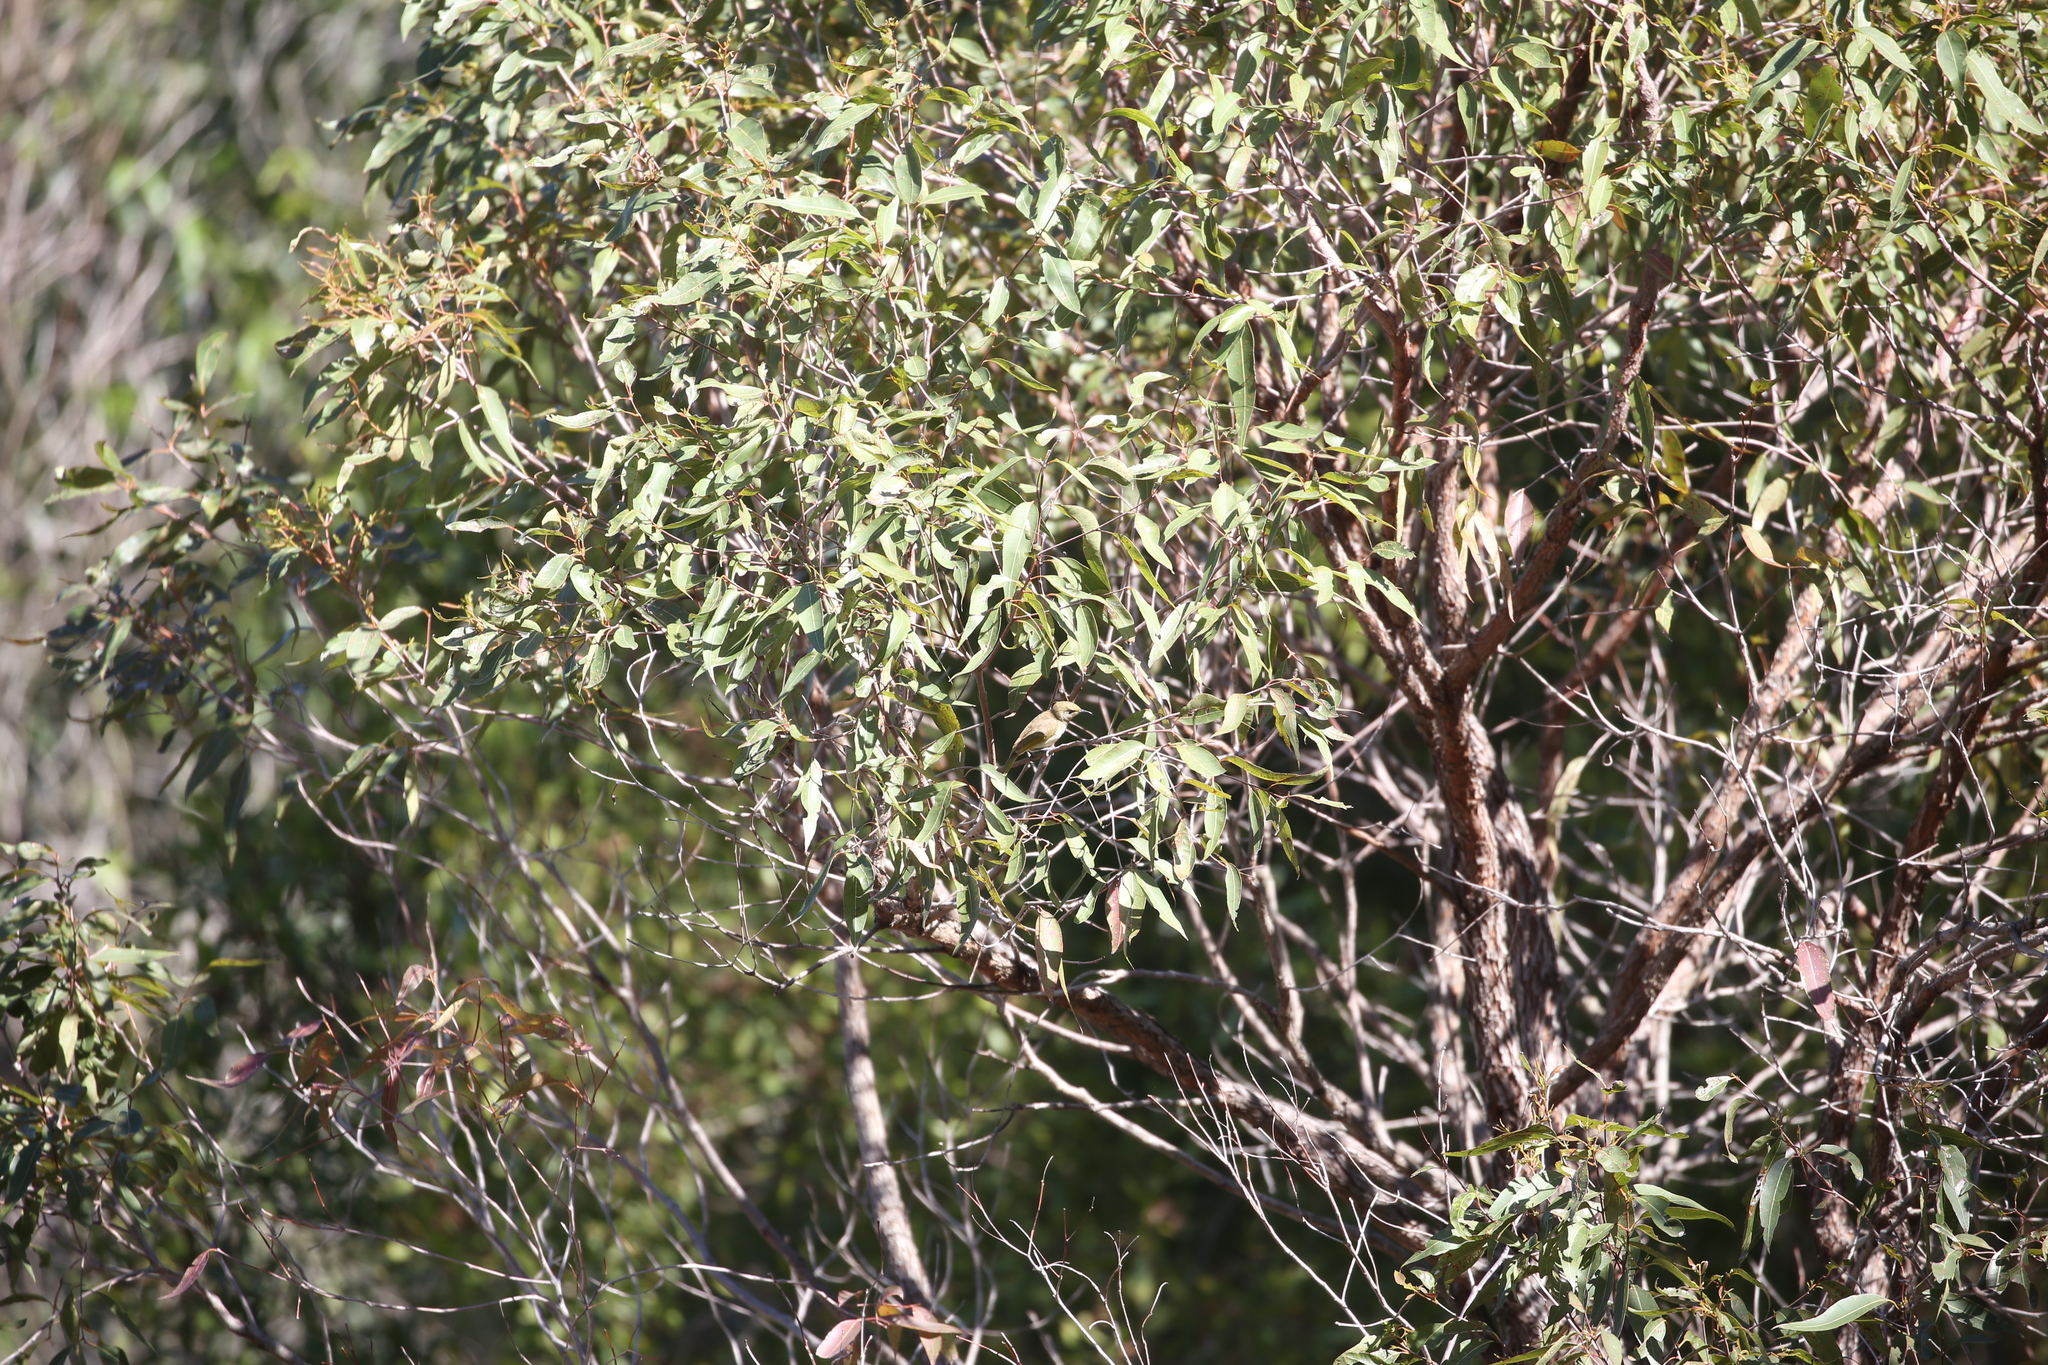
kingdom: Animalia
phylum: Chordata
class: Aves
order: Passeriformes
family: Meliphagidae
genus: Lichmera
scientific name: Lichmera indistincta
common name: Brown honeyeater
